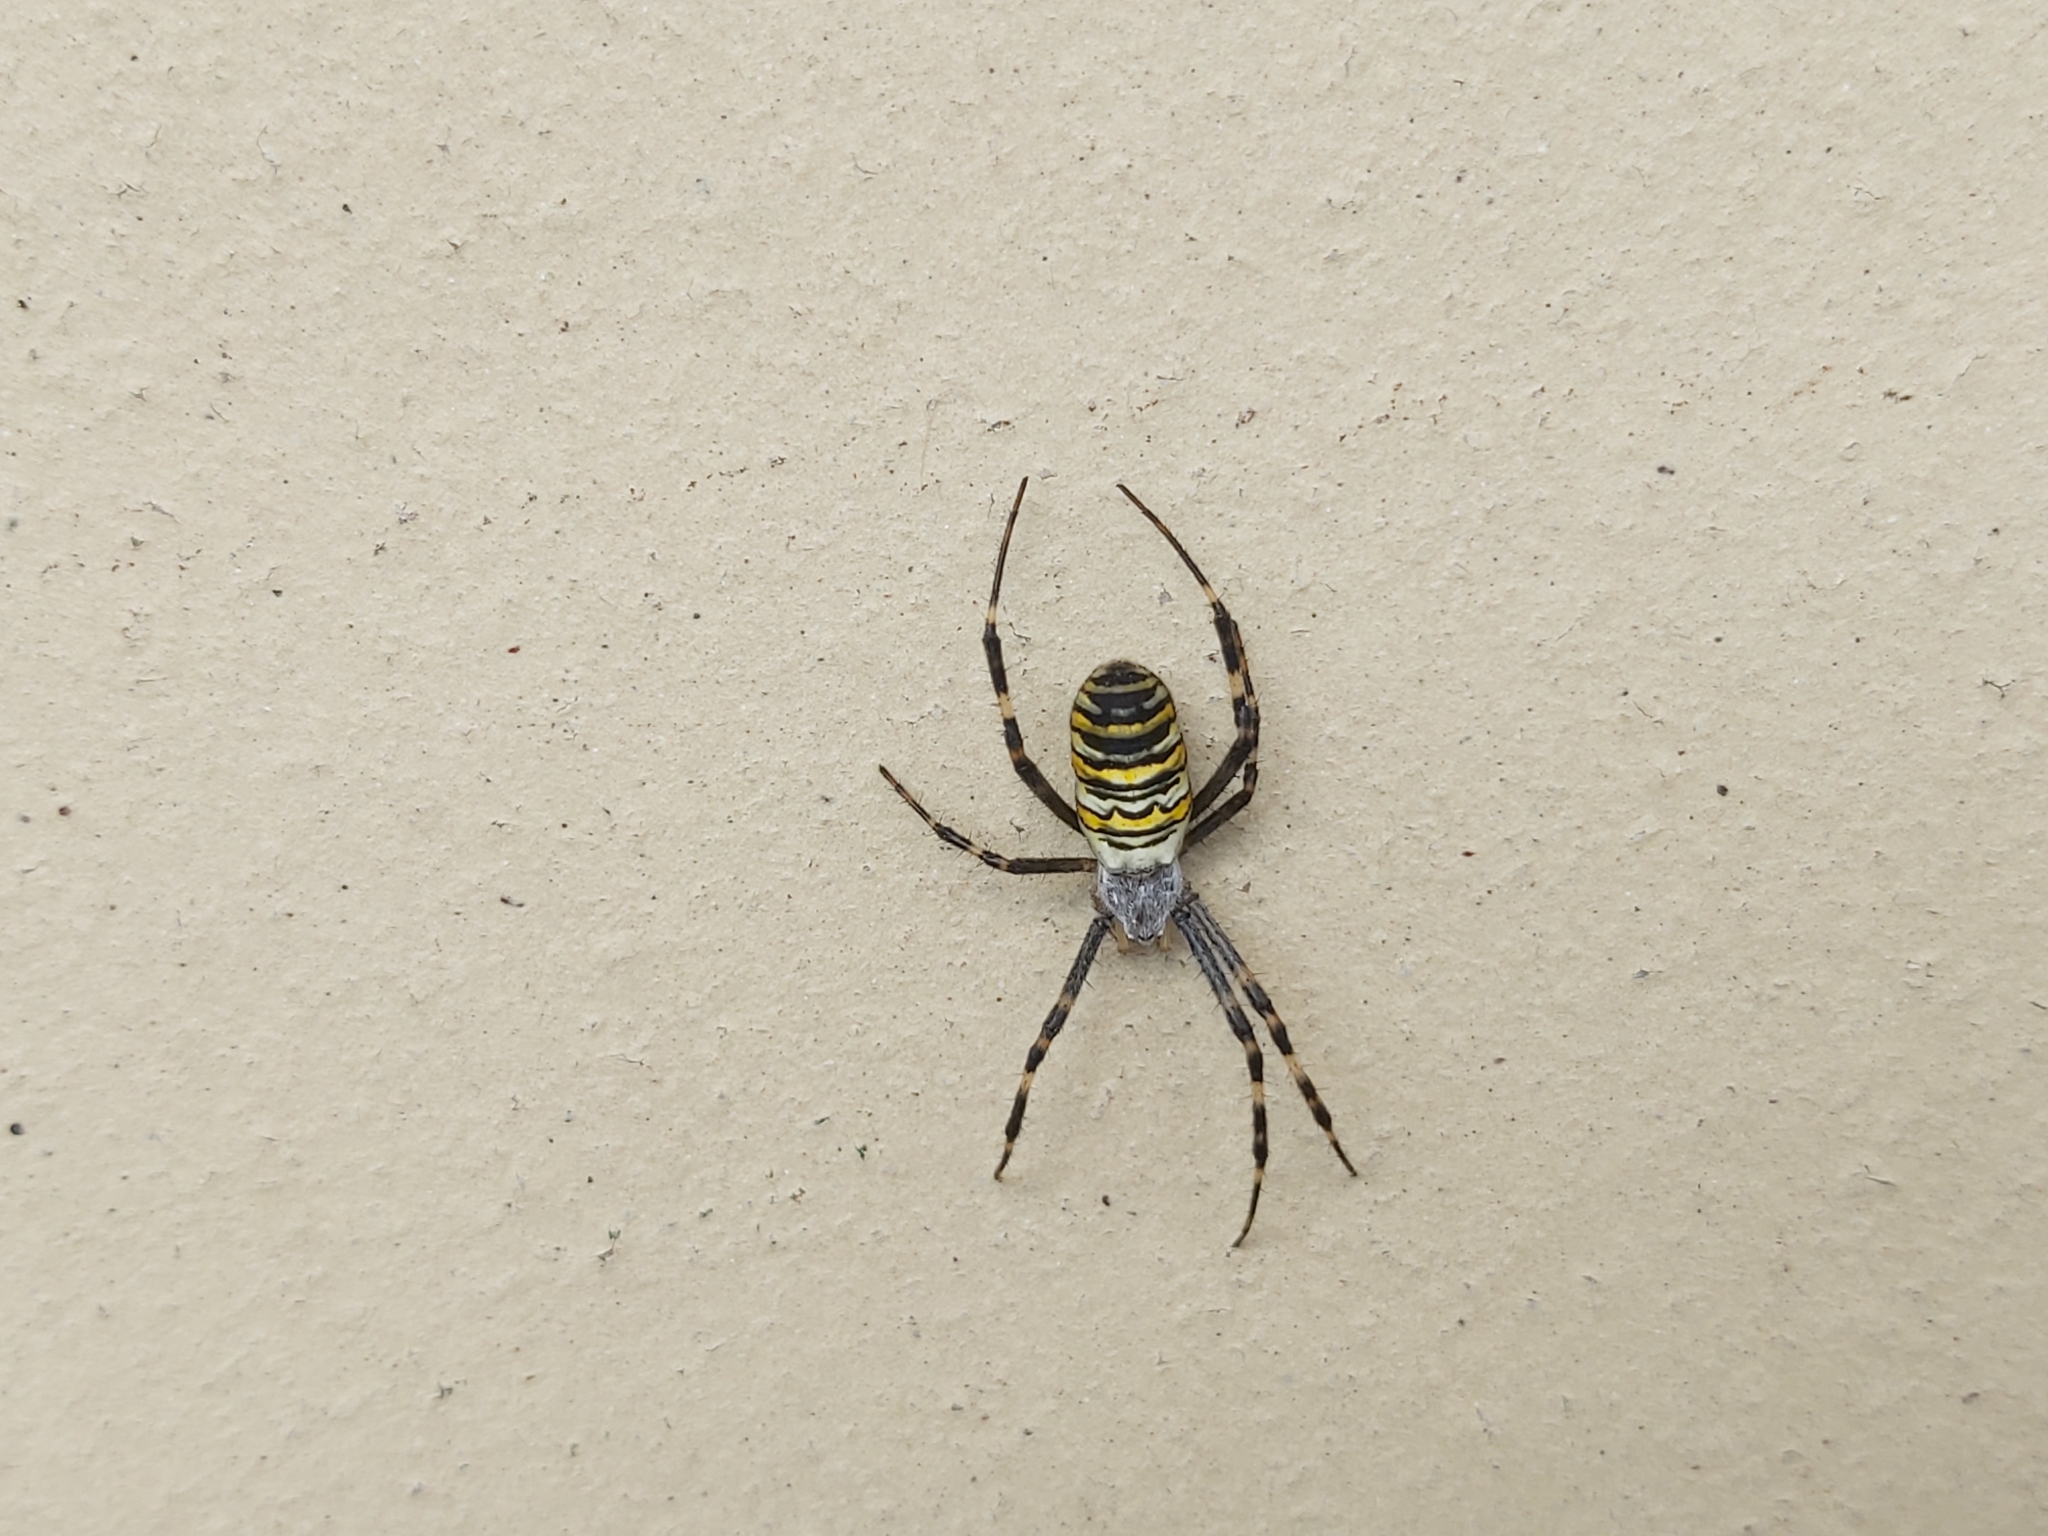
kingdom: Animalia
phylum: Arthropoda
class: Arachnida
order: Araneae
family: Araneidae
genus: Argiope
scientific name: Argiope bruennichi
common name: Wasp spider
